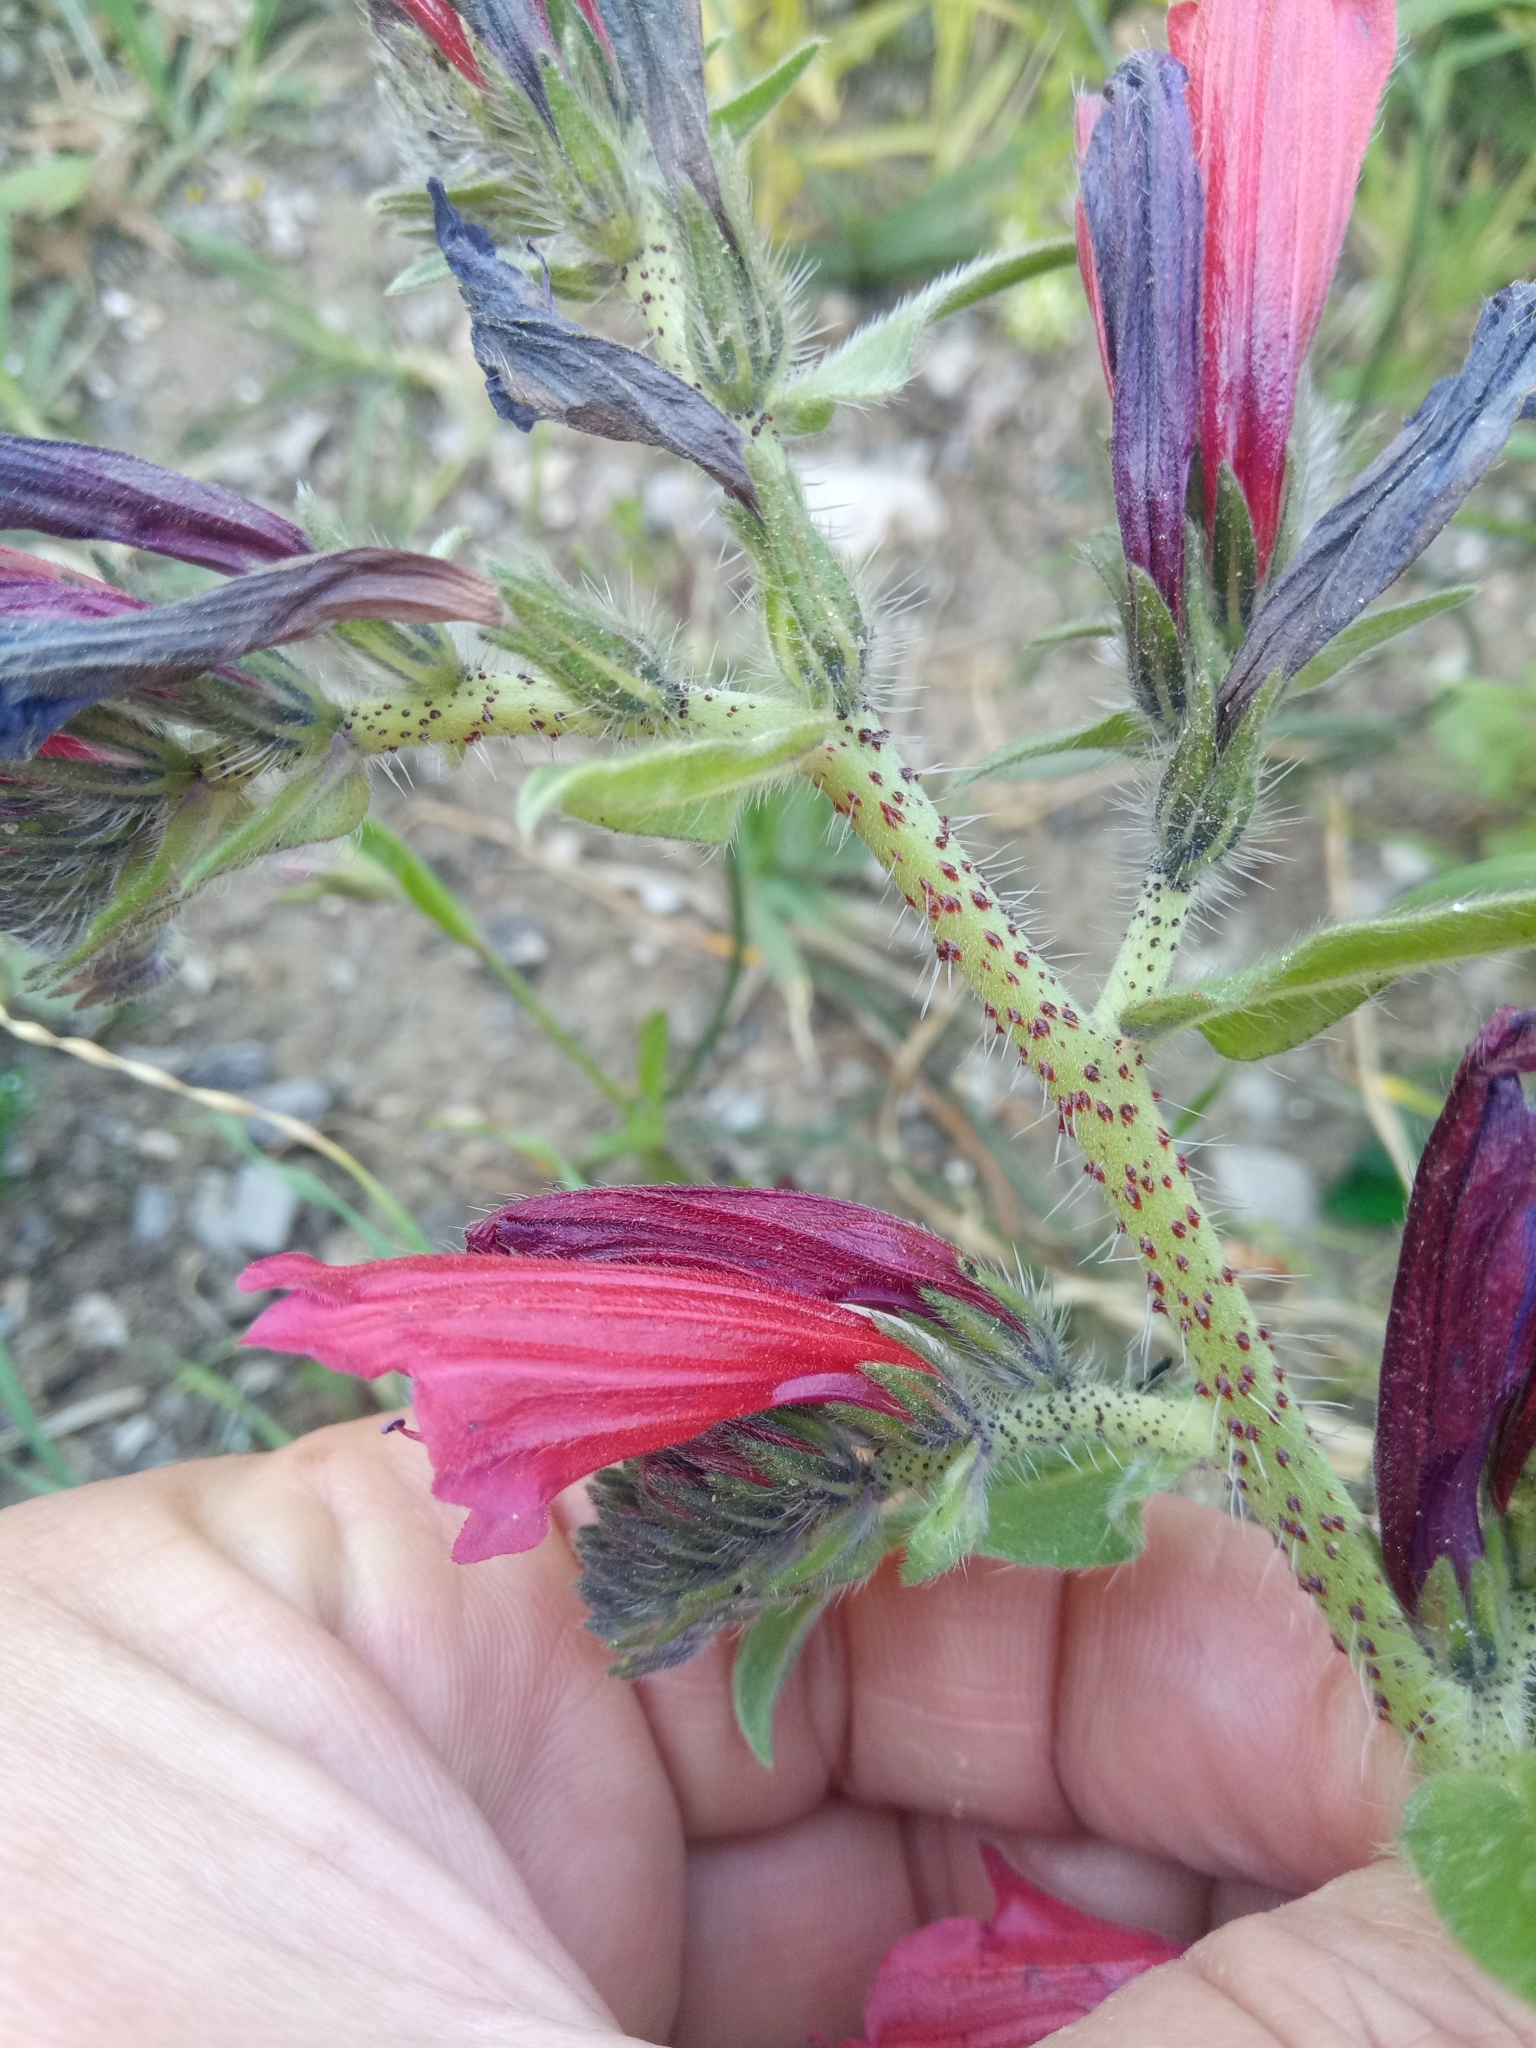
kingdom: Plantae
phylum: Tracheophyta
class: Magnoliopsida
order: Boraginales
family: Boraginaceae
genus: Echium
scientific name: Echium creticum
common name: Cretan viper's bugloss
